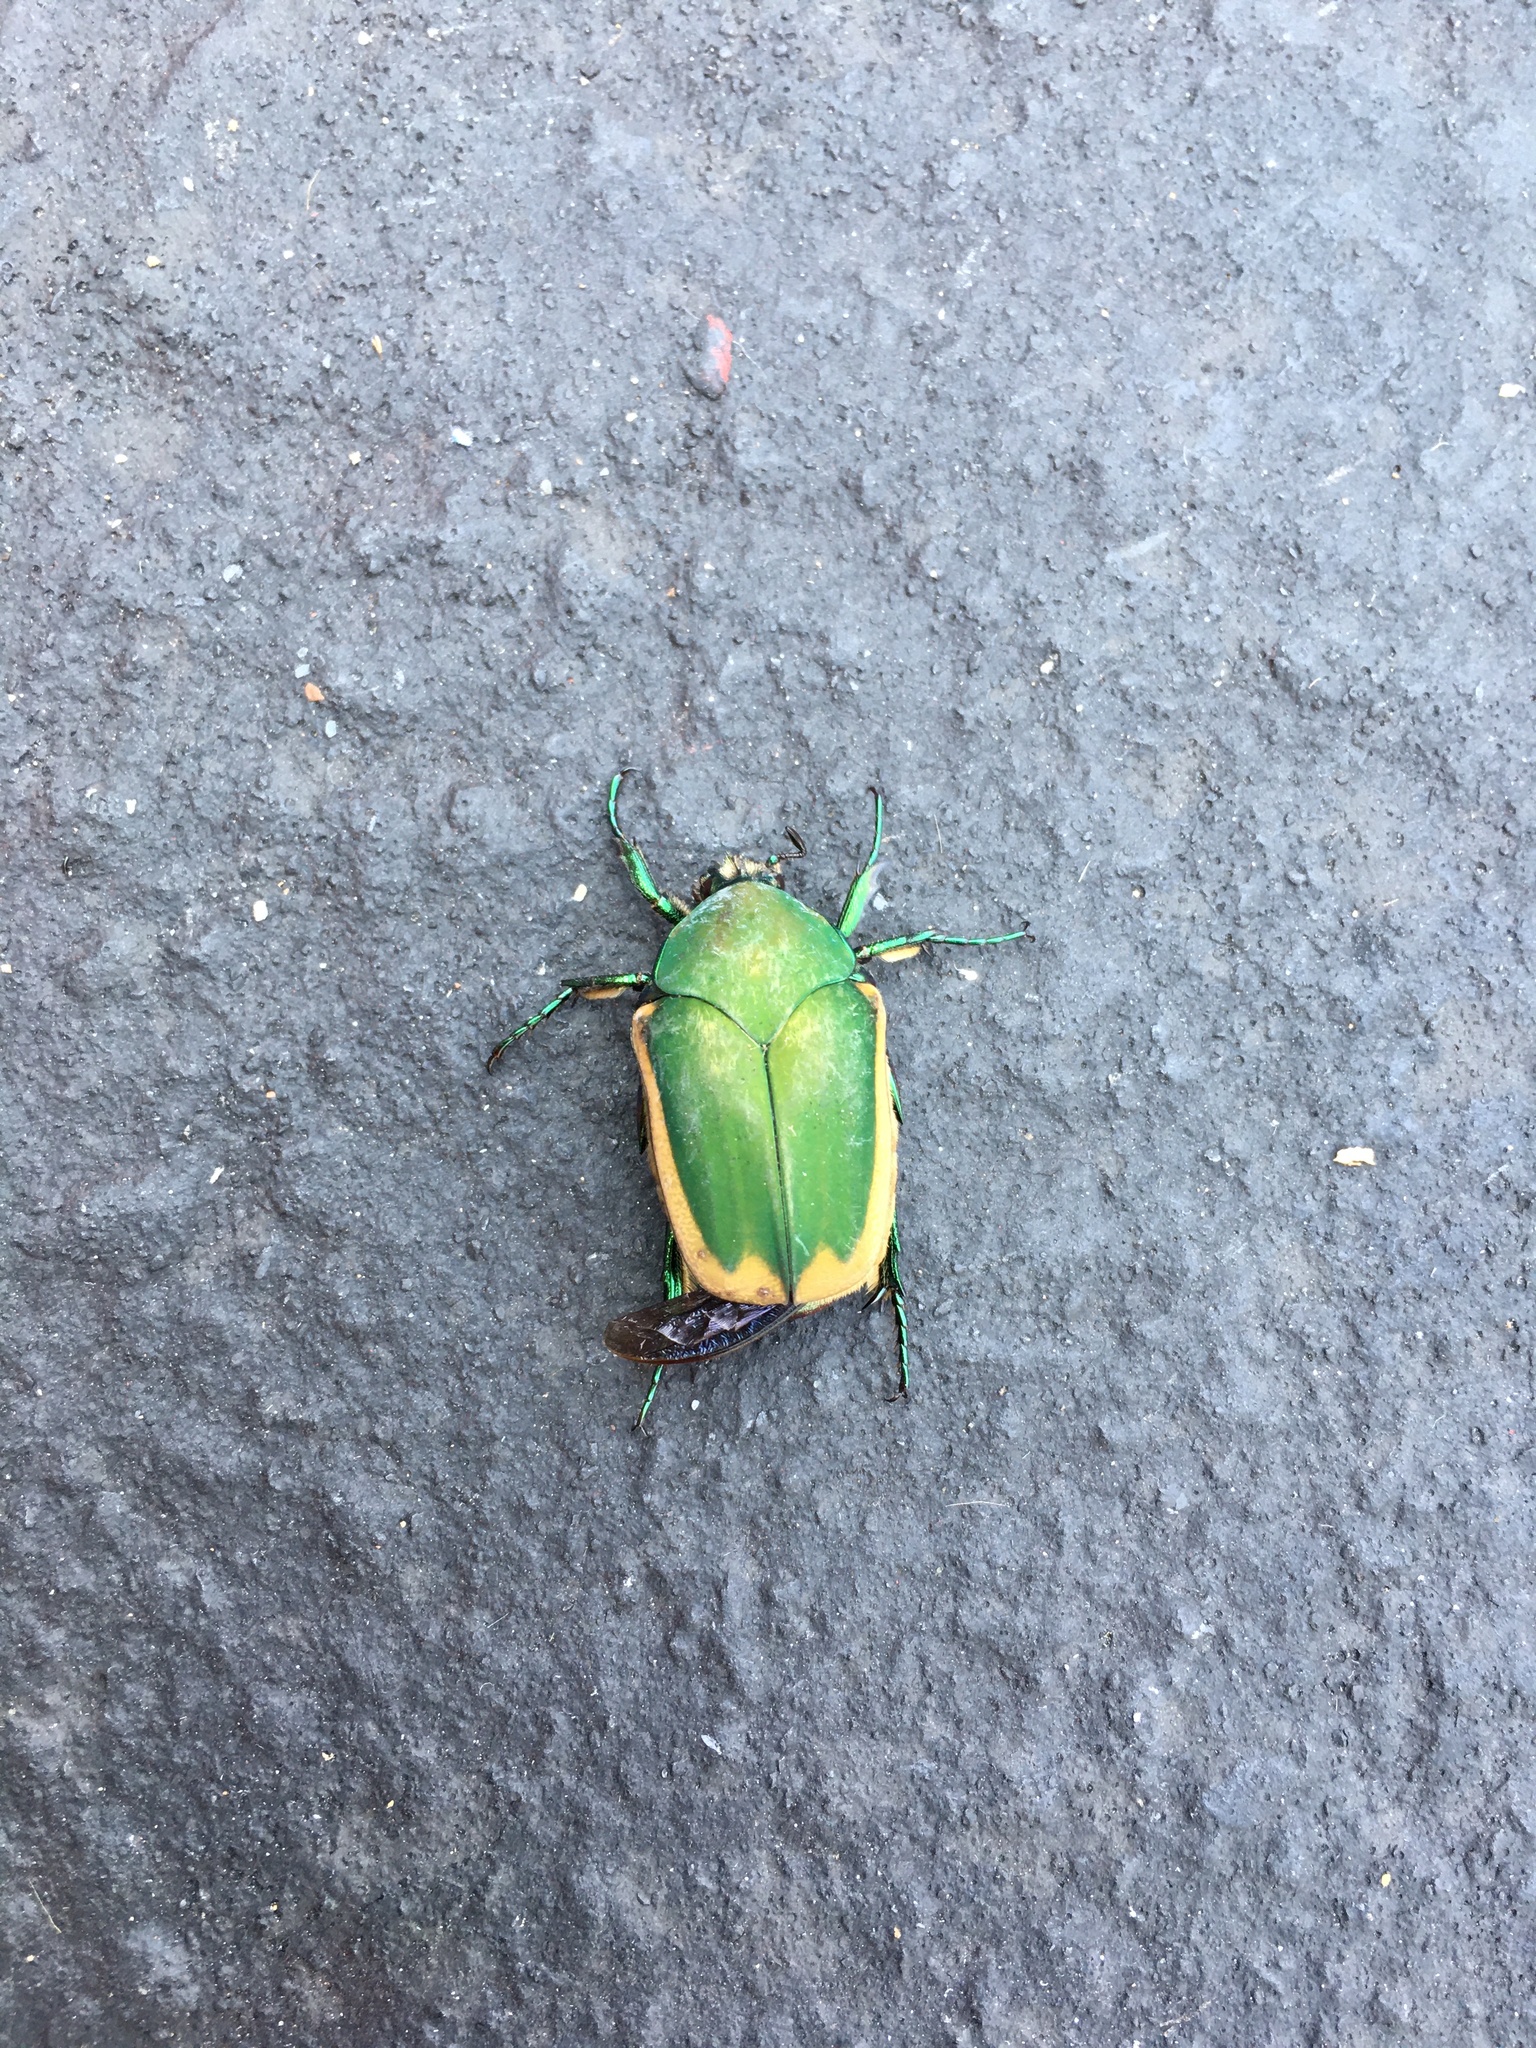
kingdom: Animalia
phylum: Arthropoda
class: Insecta
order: Coleoptera
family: Scarabaeidae
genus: Cotinis
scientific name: Cotinis mutabilis
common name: Figeater beetle
